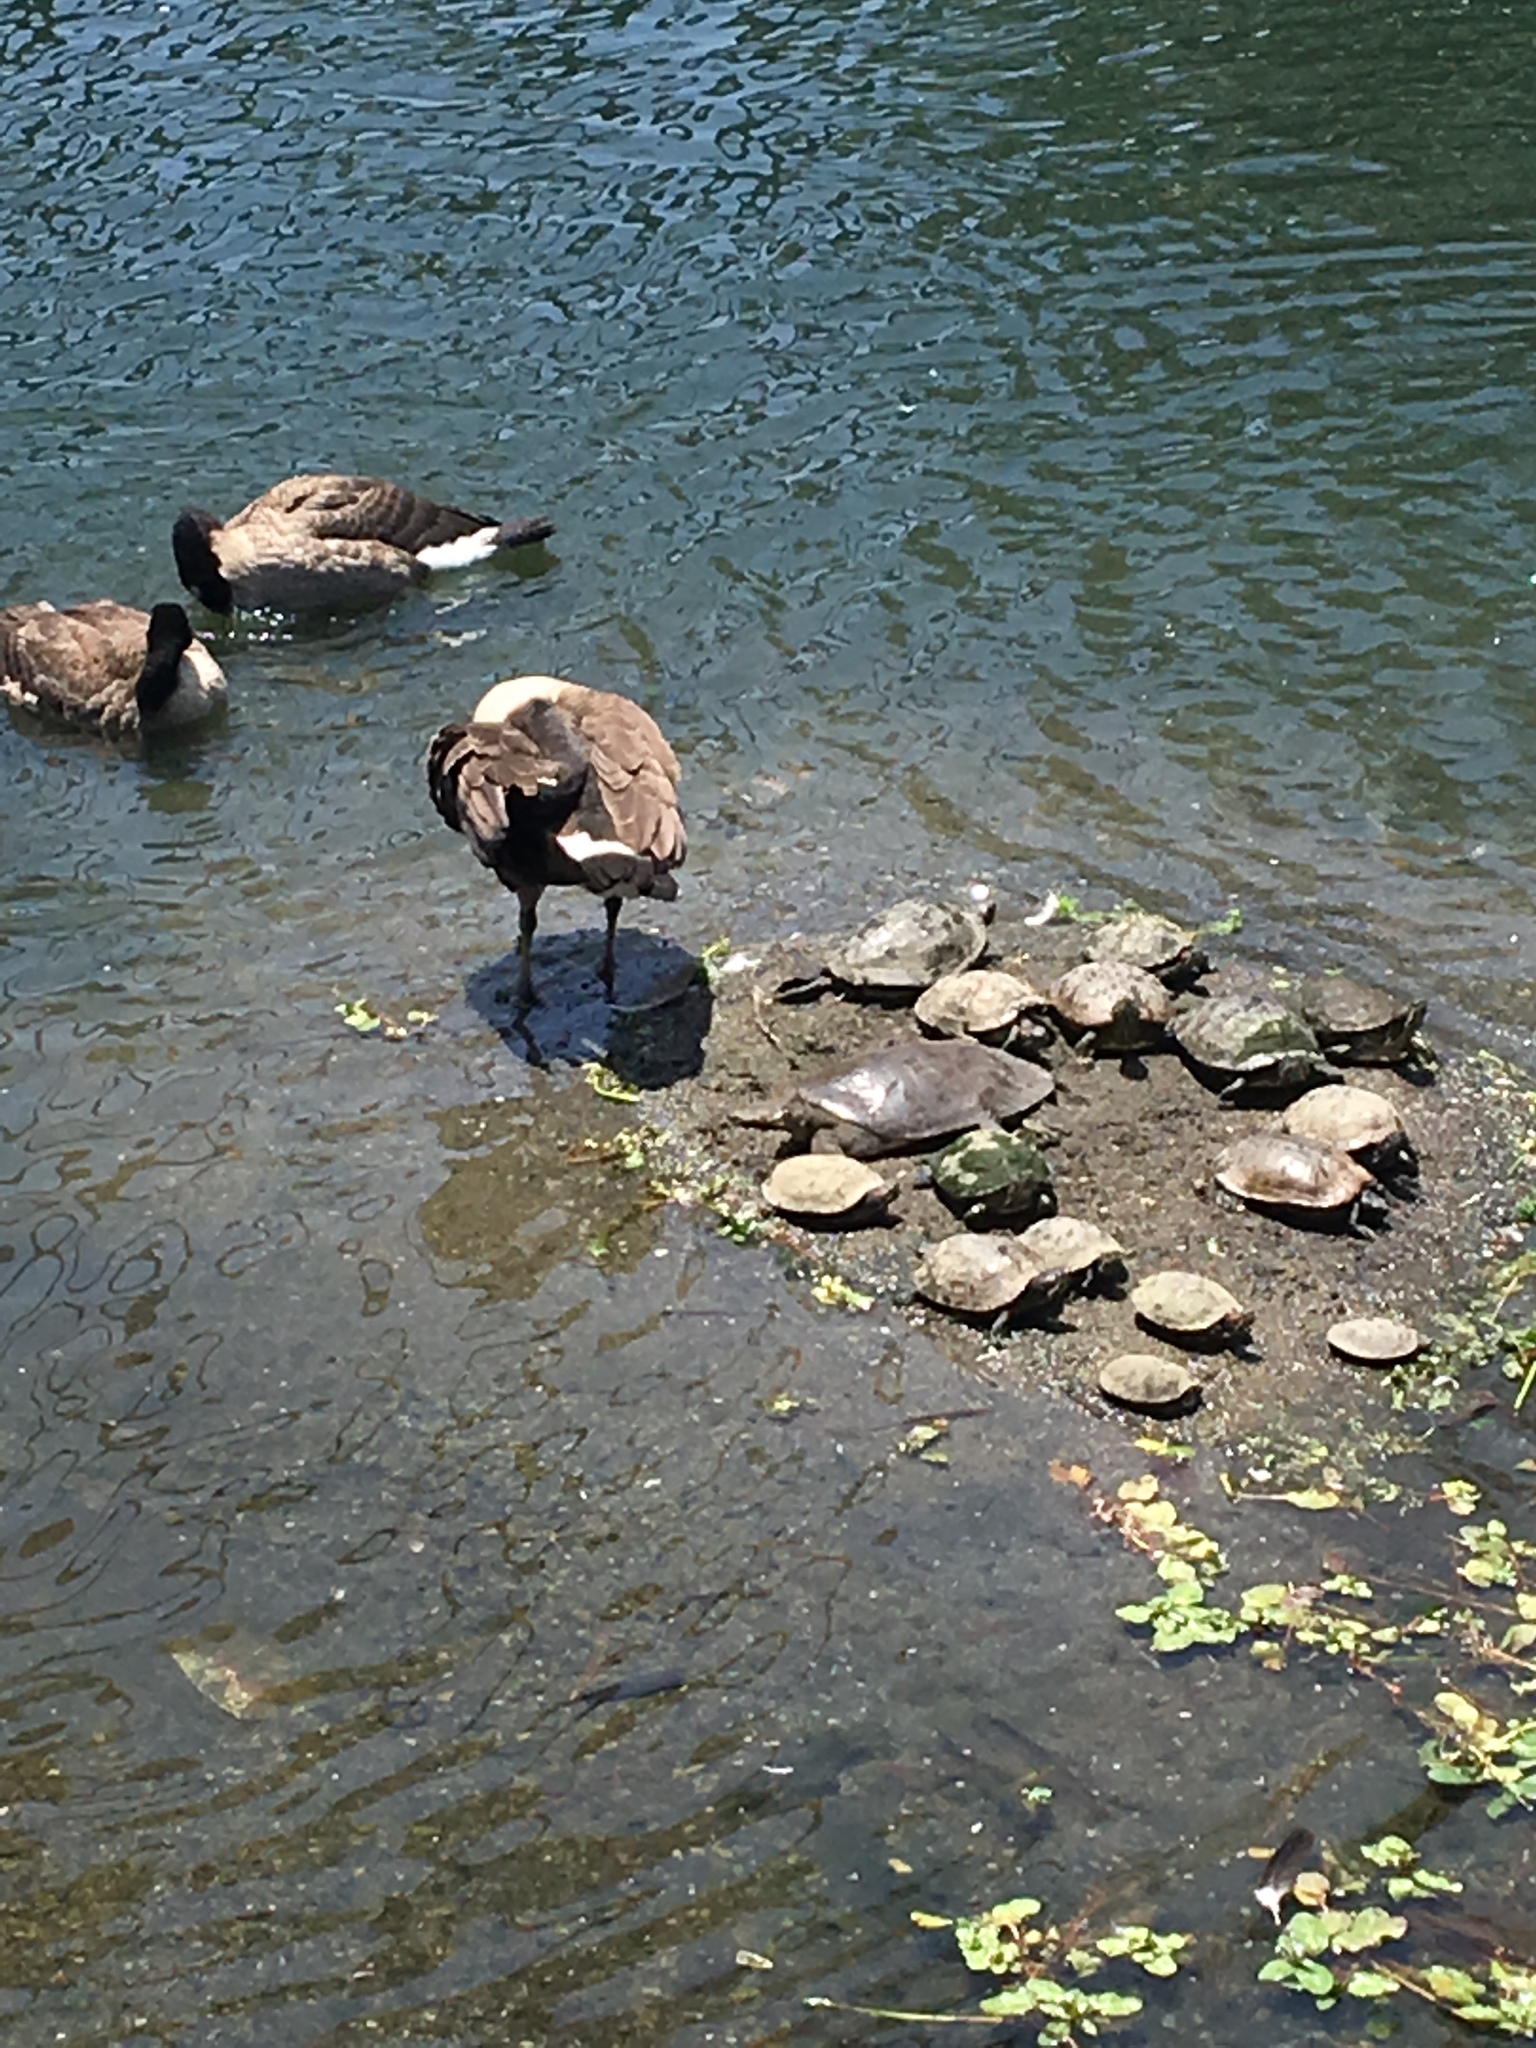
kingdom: Animalia
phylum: Chordata
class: Testudines
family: Trionychidae
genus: Apalone
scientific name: Apalone spinifera
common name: Spiny softshell turtle
